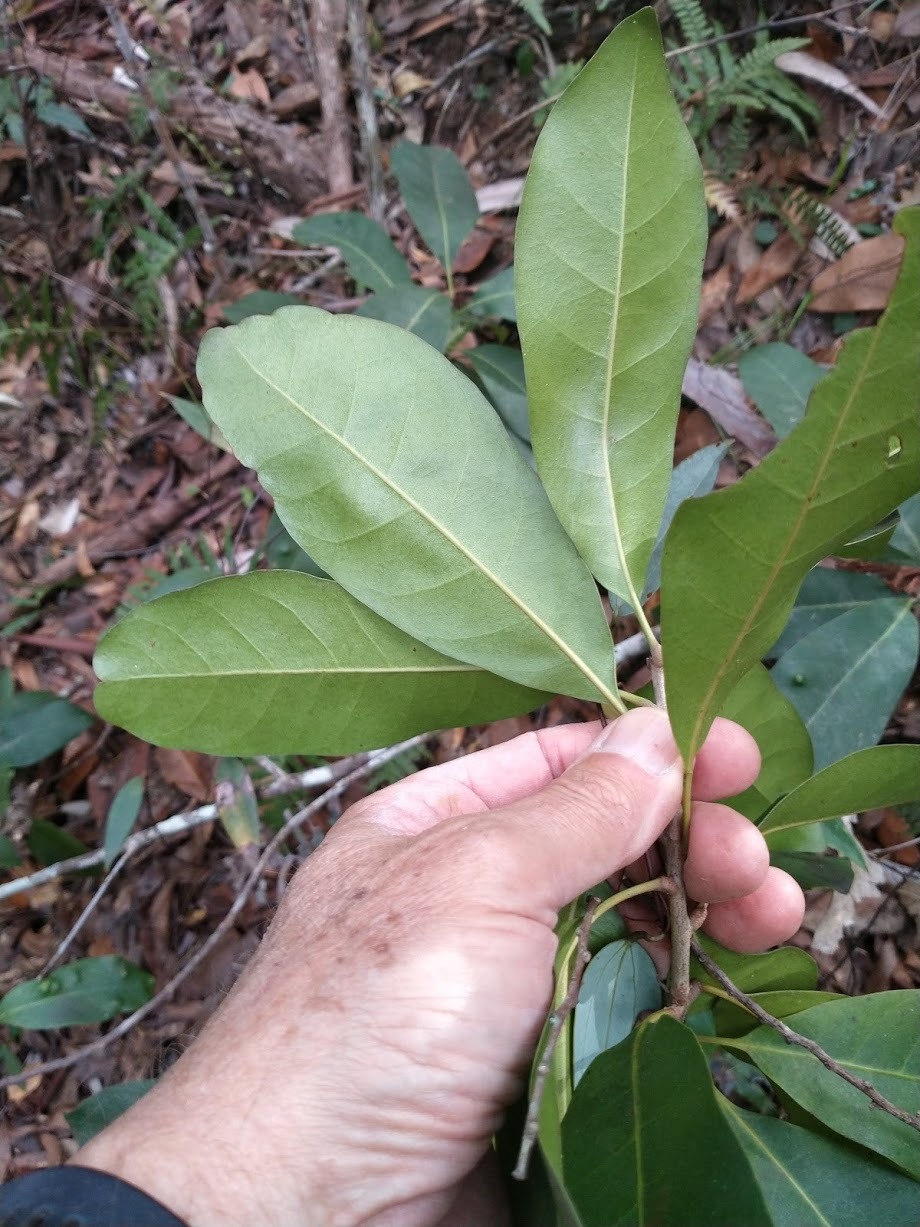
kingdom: Plantae
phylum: Tracheophyta
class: Magnoliopsida
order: Ericales
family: Sapotaceae
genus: Pleioluma
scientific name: Pleioluma queenslandica
